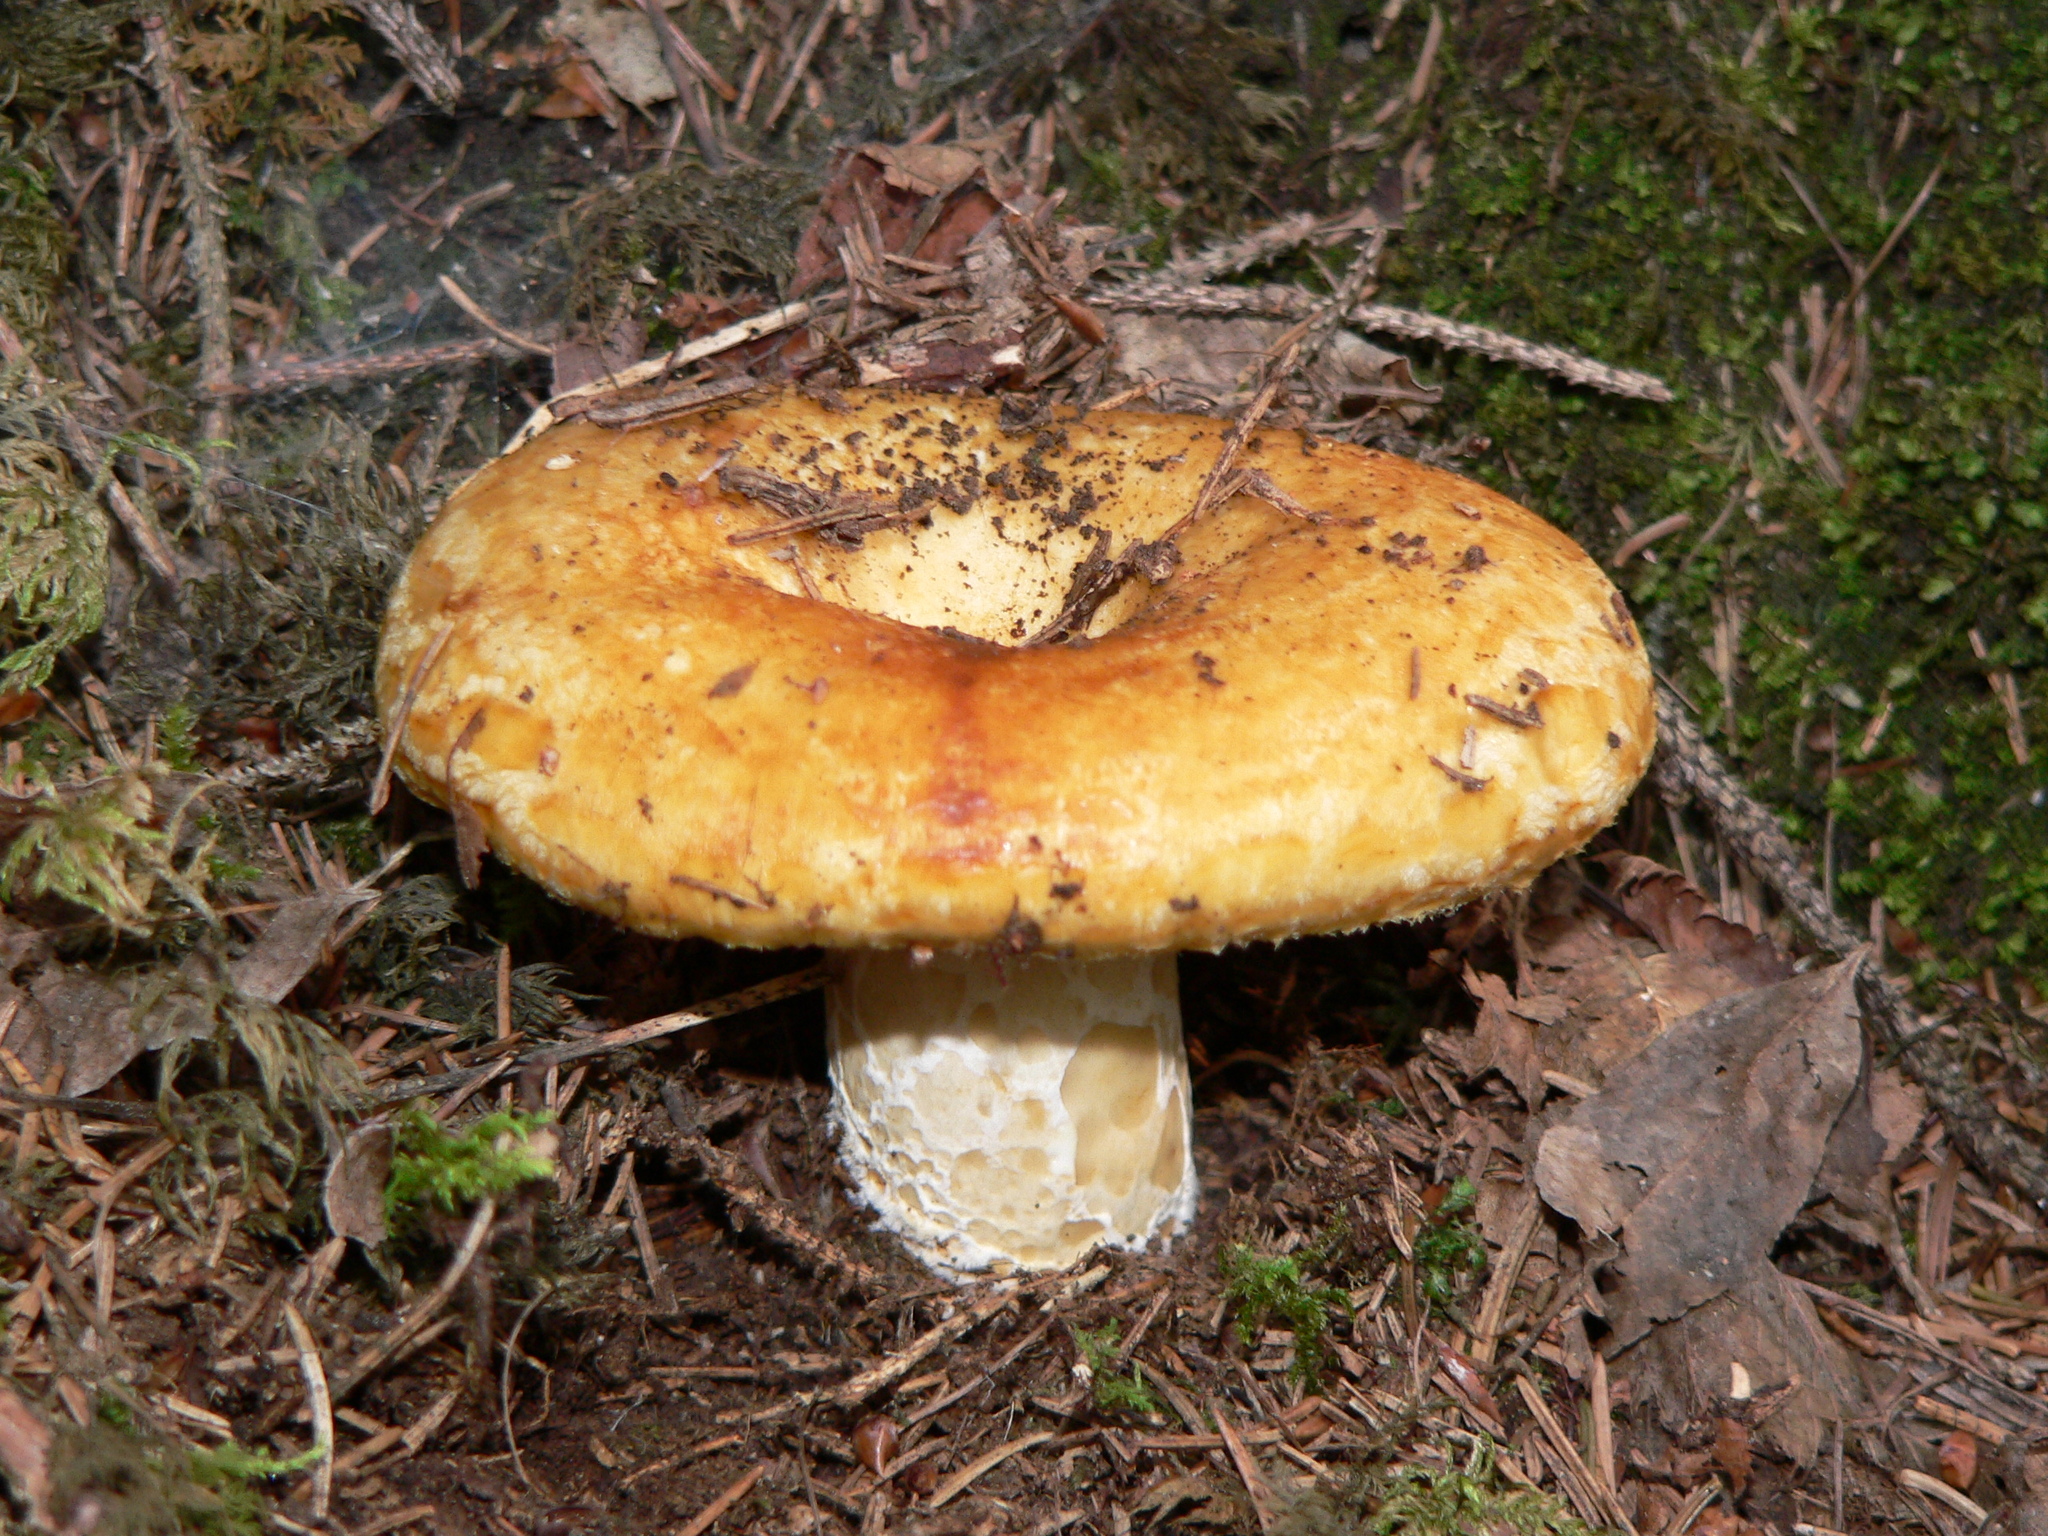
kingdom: Fungi
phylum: Basidiomycota
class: Agaricomycetes
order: Russulales
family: Russulaceae
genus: Lactarius
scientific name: Lactarius scrobiculatus
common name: Spotted milkcap
